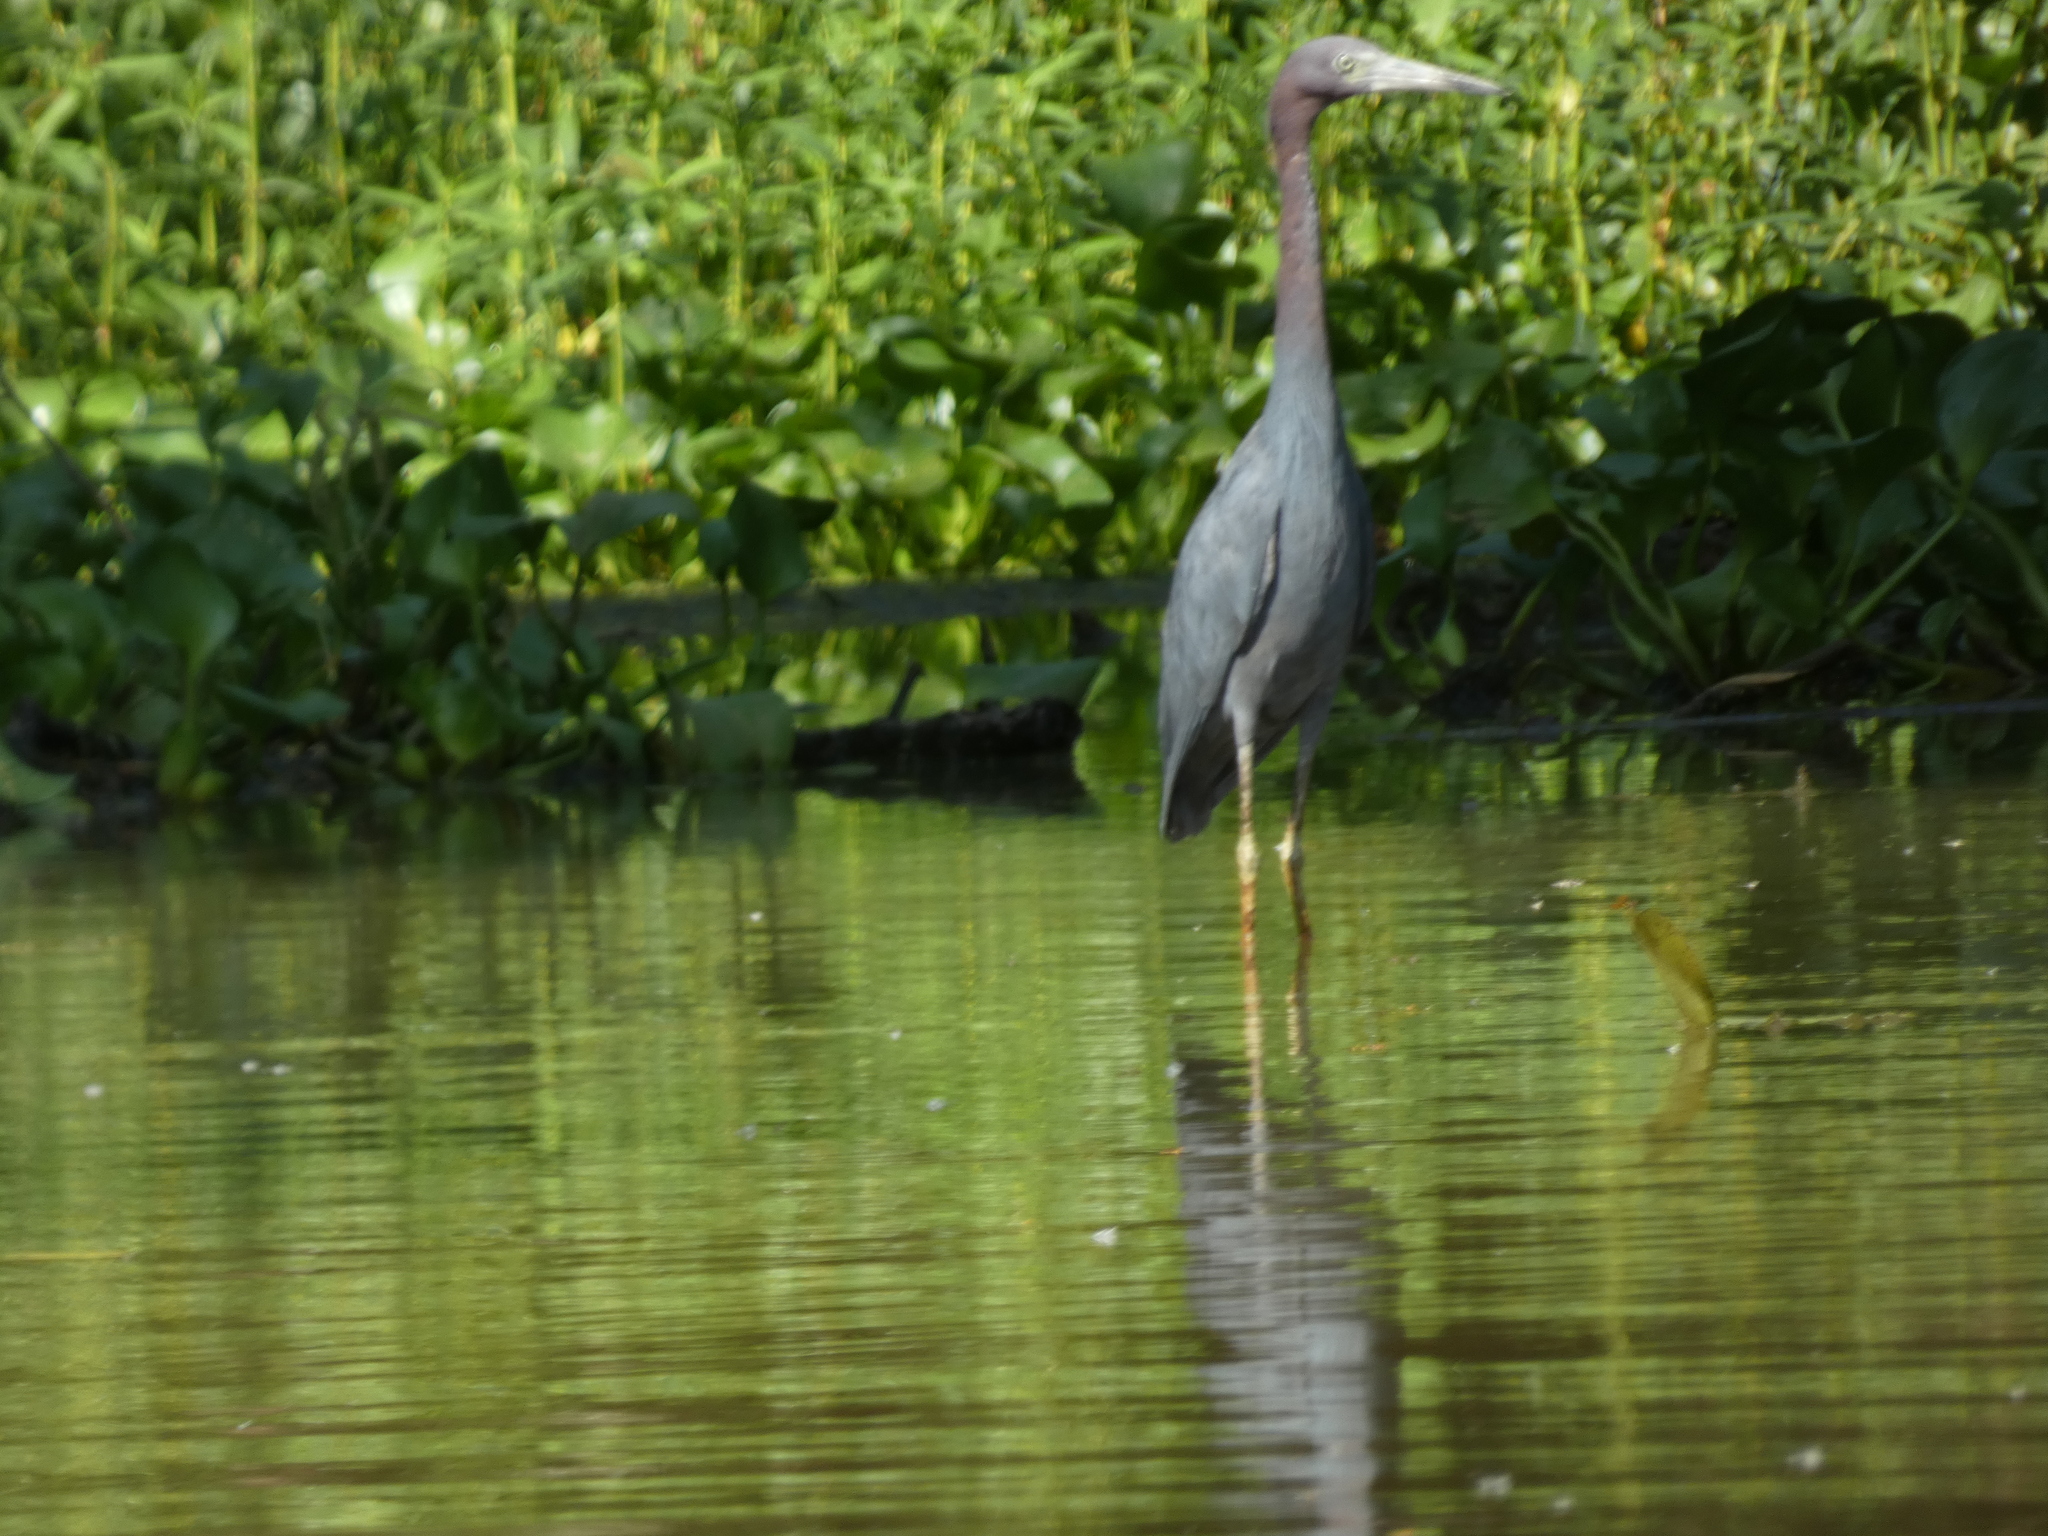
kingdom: Animalia
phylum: Chordata
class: Aves
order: Pelecaniformes
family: Ardeidae
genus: Egretta
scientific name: Egretta caerulea
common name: Little blue heron
